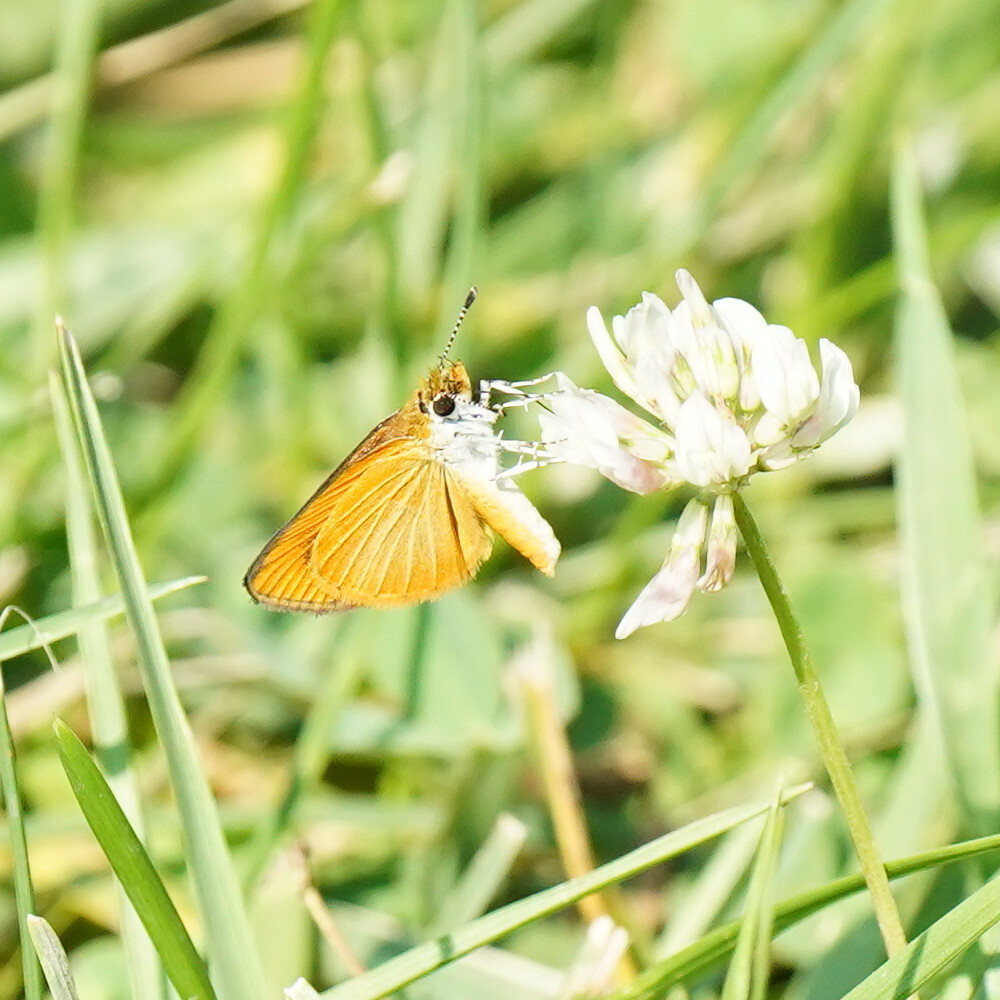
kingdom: Animalia
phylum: Arthropoda
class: Insecta
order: Lepidoptera
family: Hesperiidae
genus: Ancyloxypha
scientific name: Ancyloxypha numitor
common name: Least skipper
